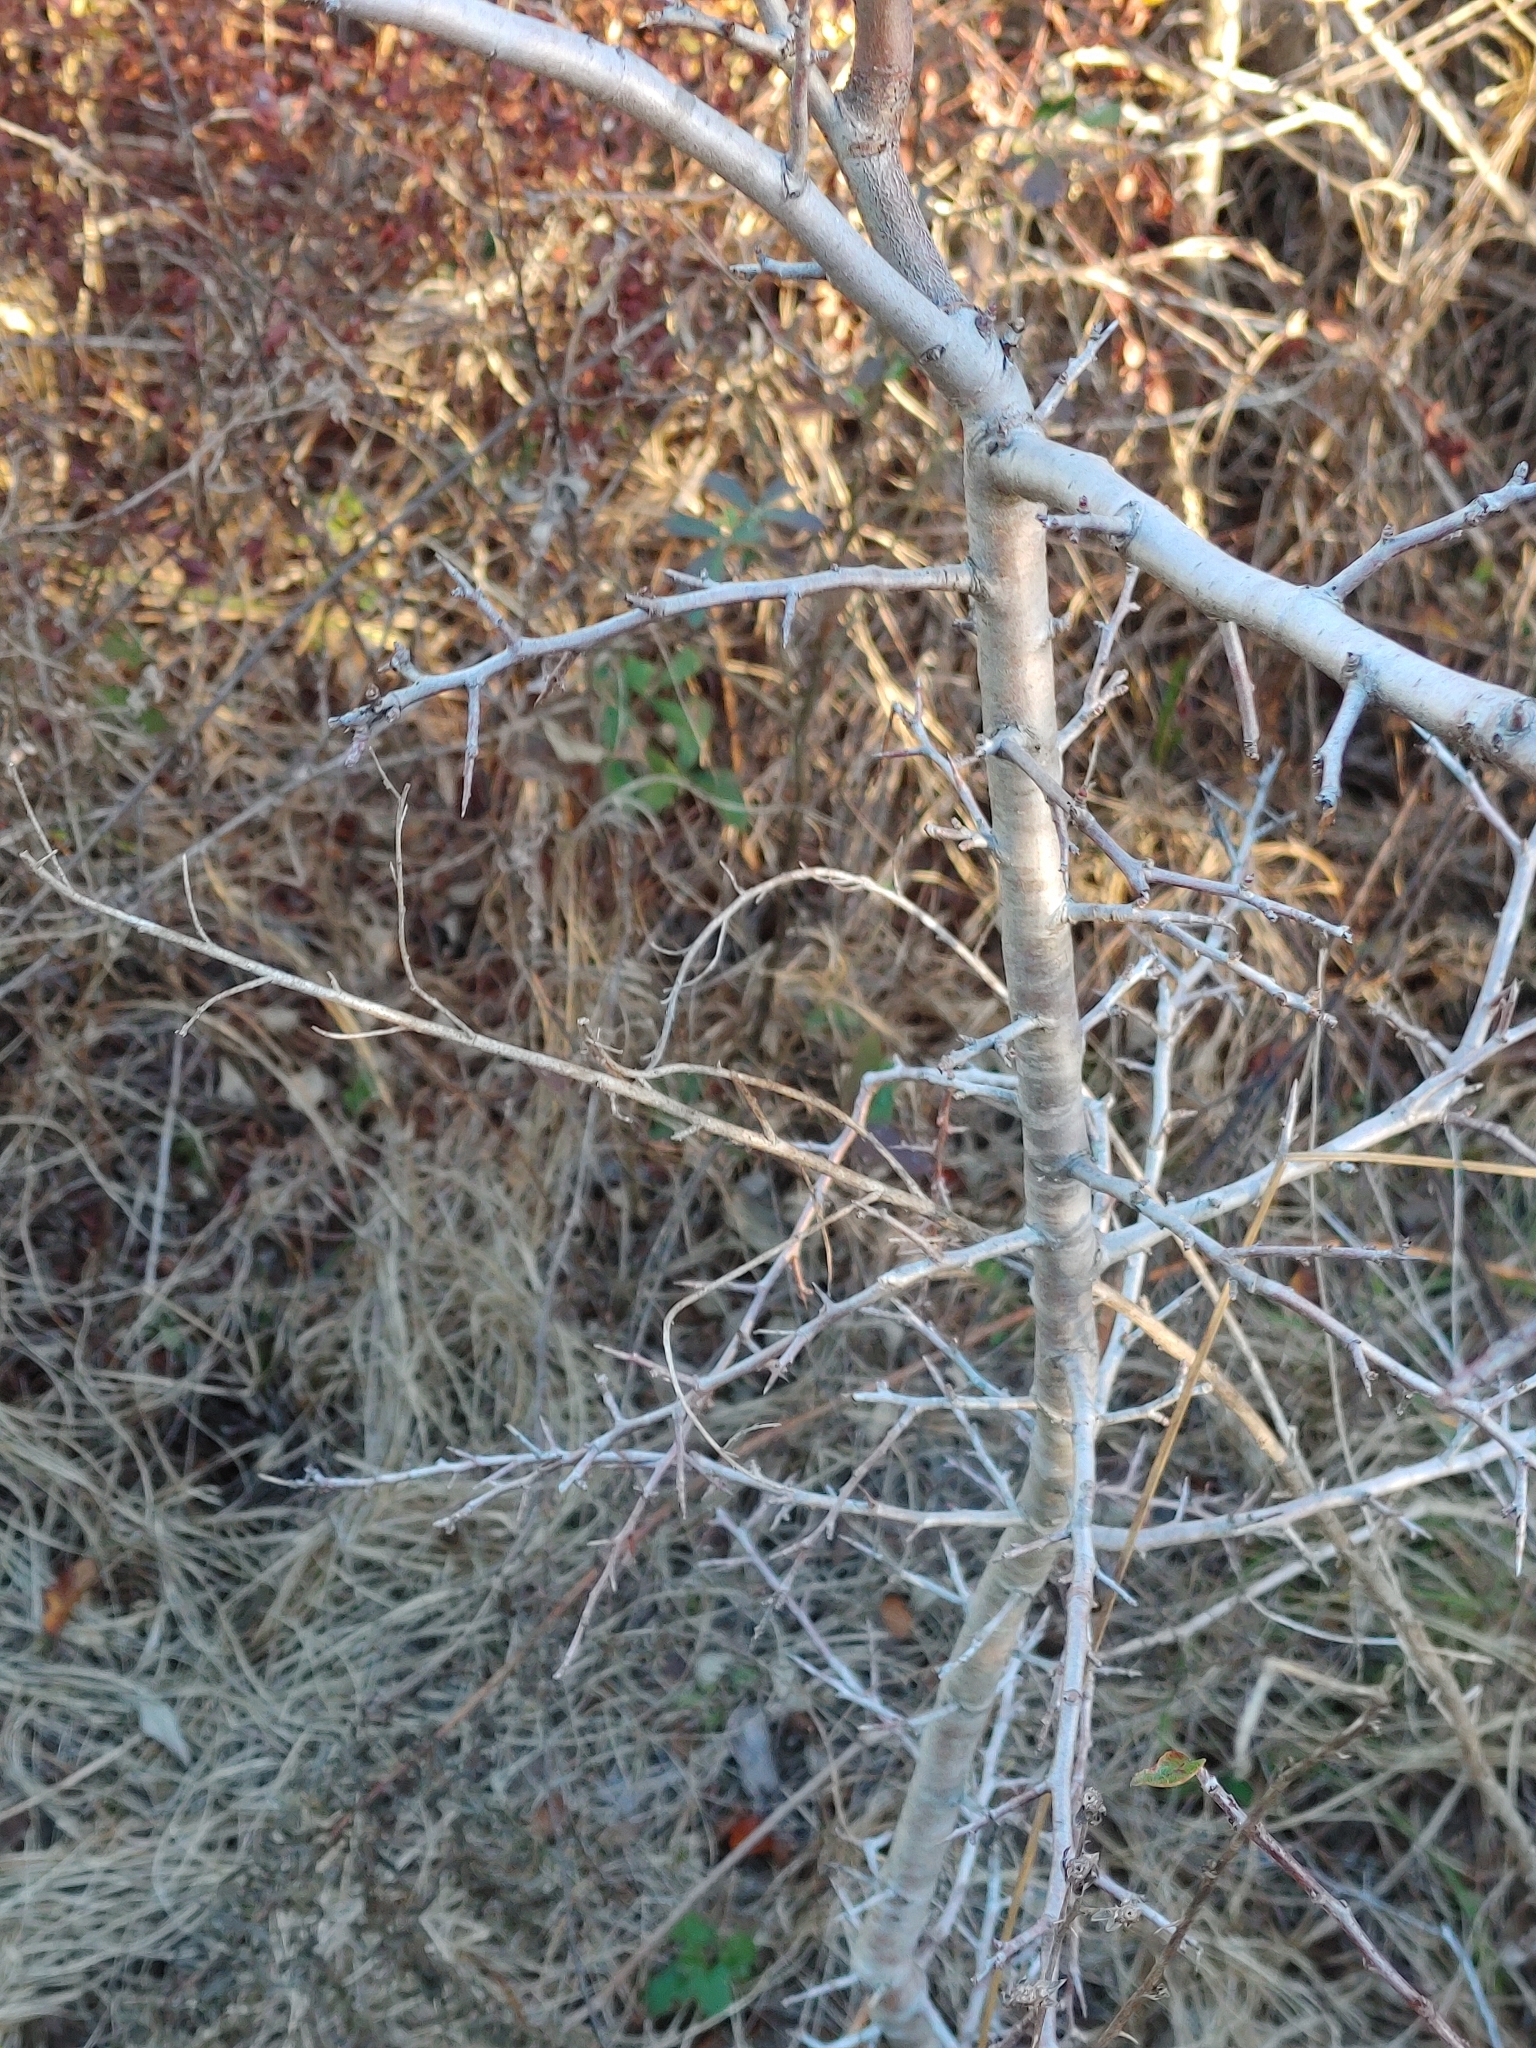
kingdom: Plantae
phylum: Tracheophyta
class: Magnoliopsida
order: Rosales
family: Rosaceae
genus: Malus
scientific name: Malus angustifolia
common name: Southern crab apple
